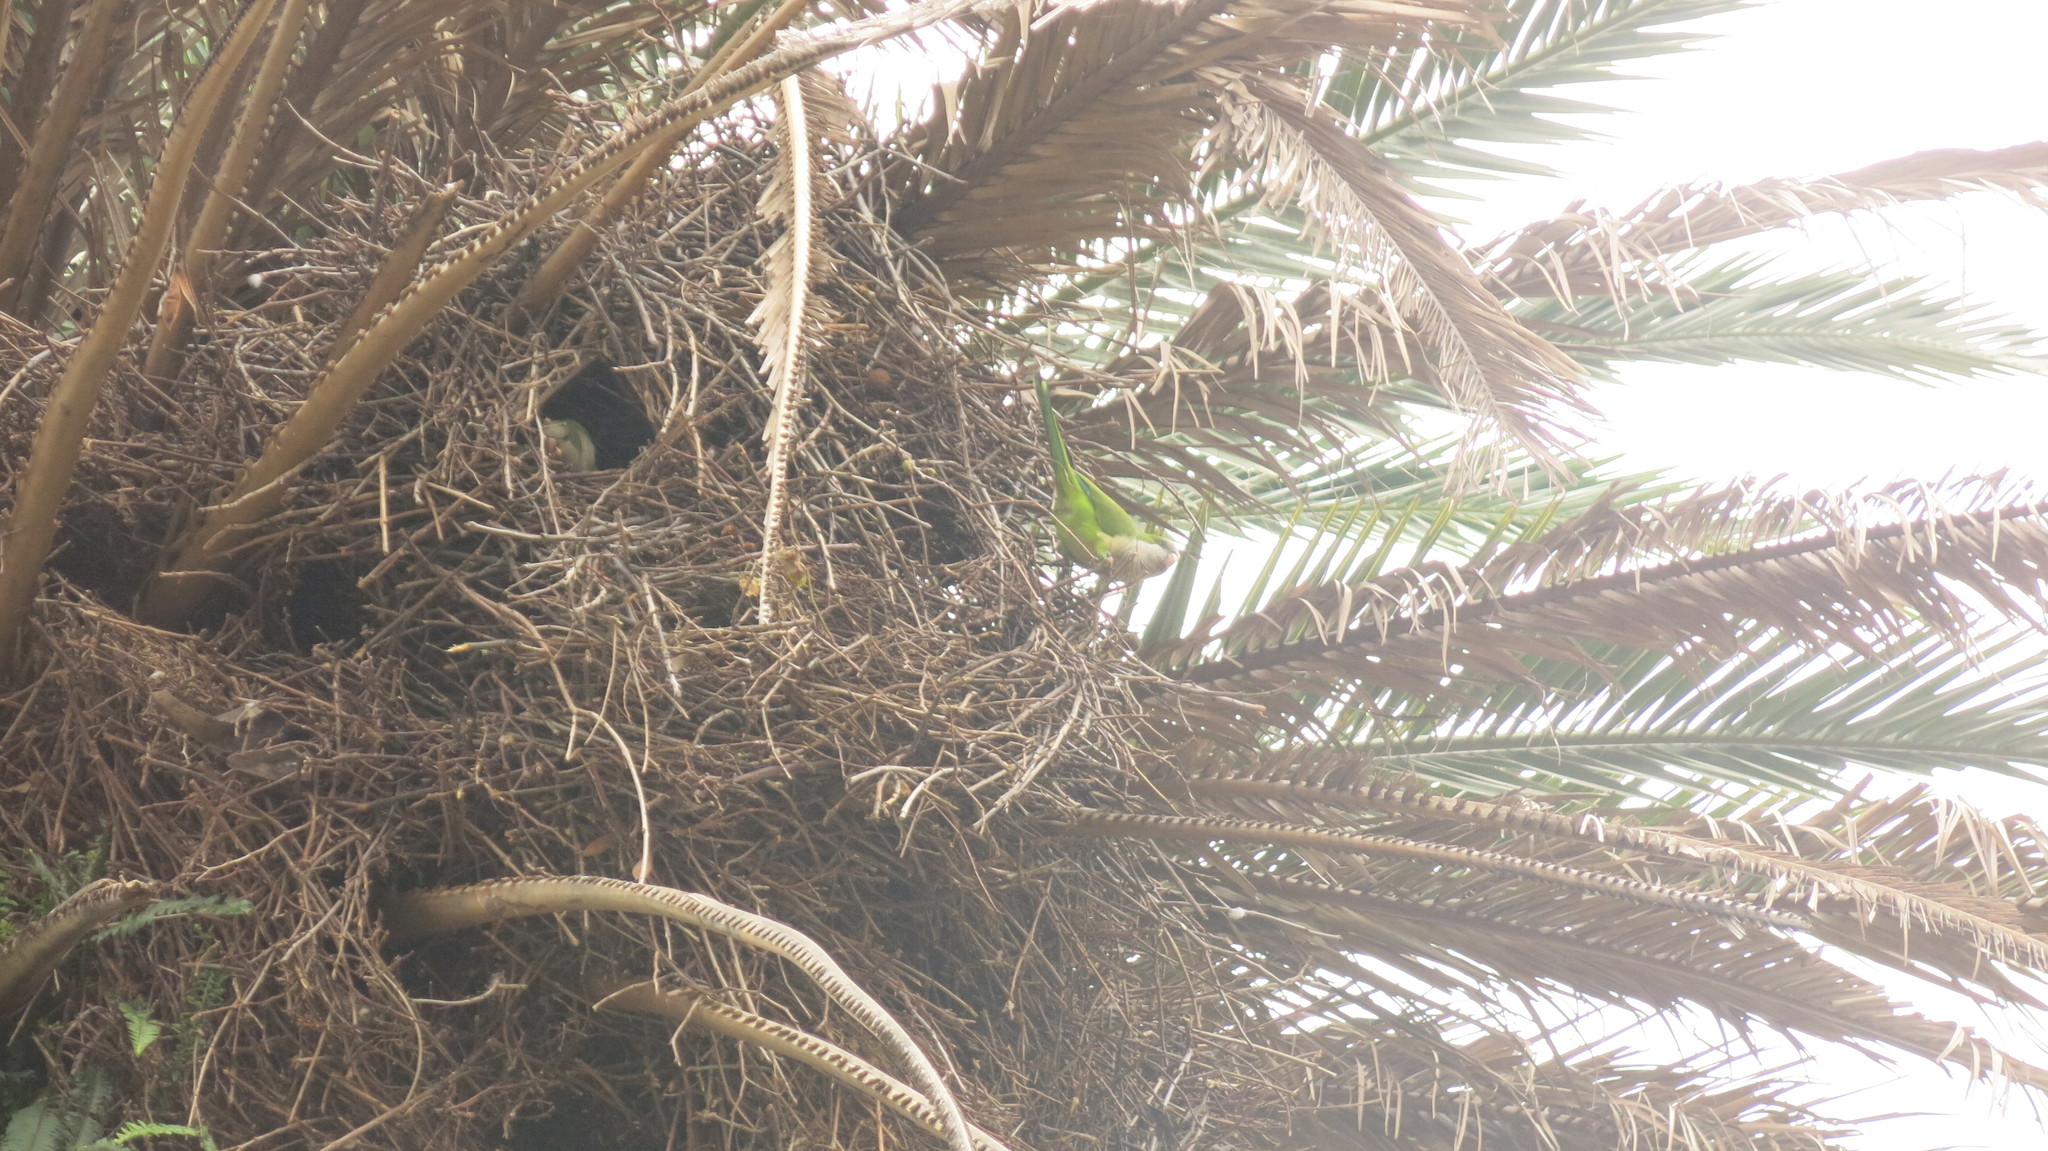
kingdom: Animalia
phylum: Chordata
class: Aves
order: Psittaciformes
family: Psittacidae
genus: Myiopsitta
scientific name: Myiopsitta monachus
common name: Monk parakeet
